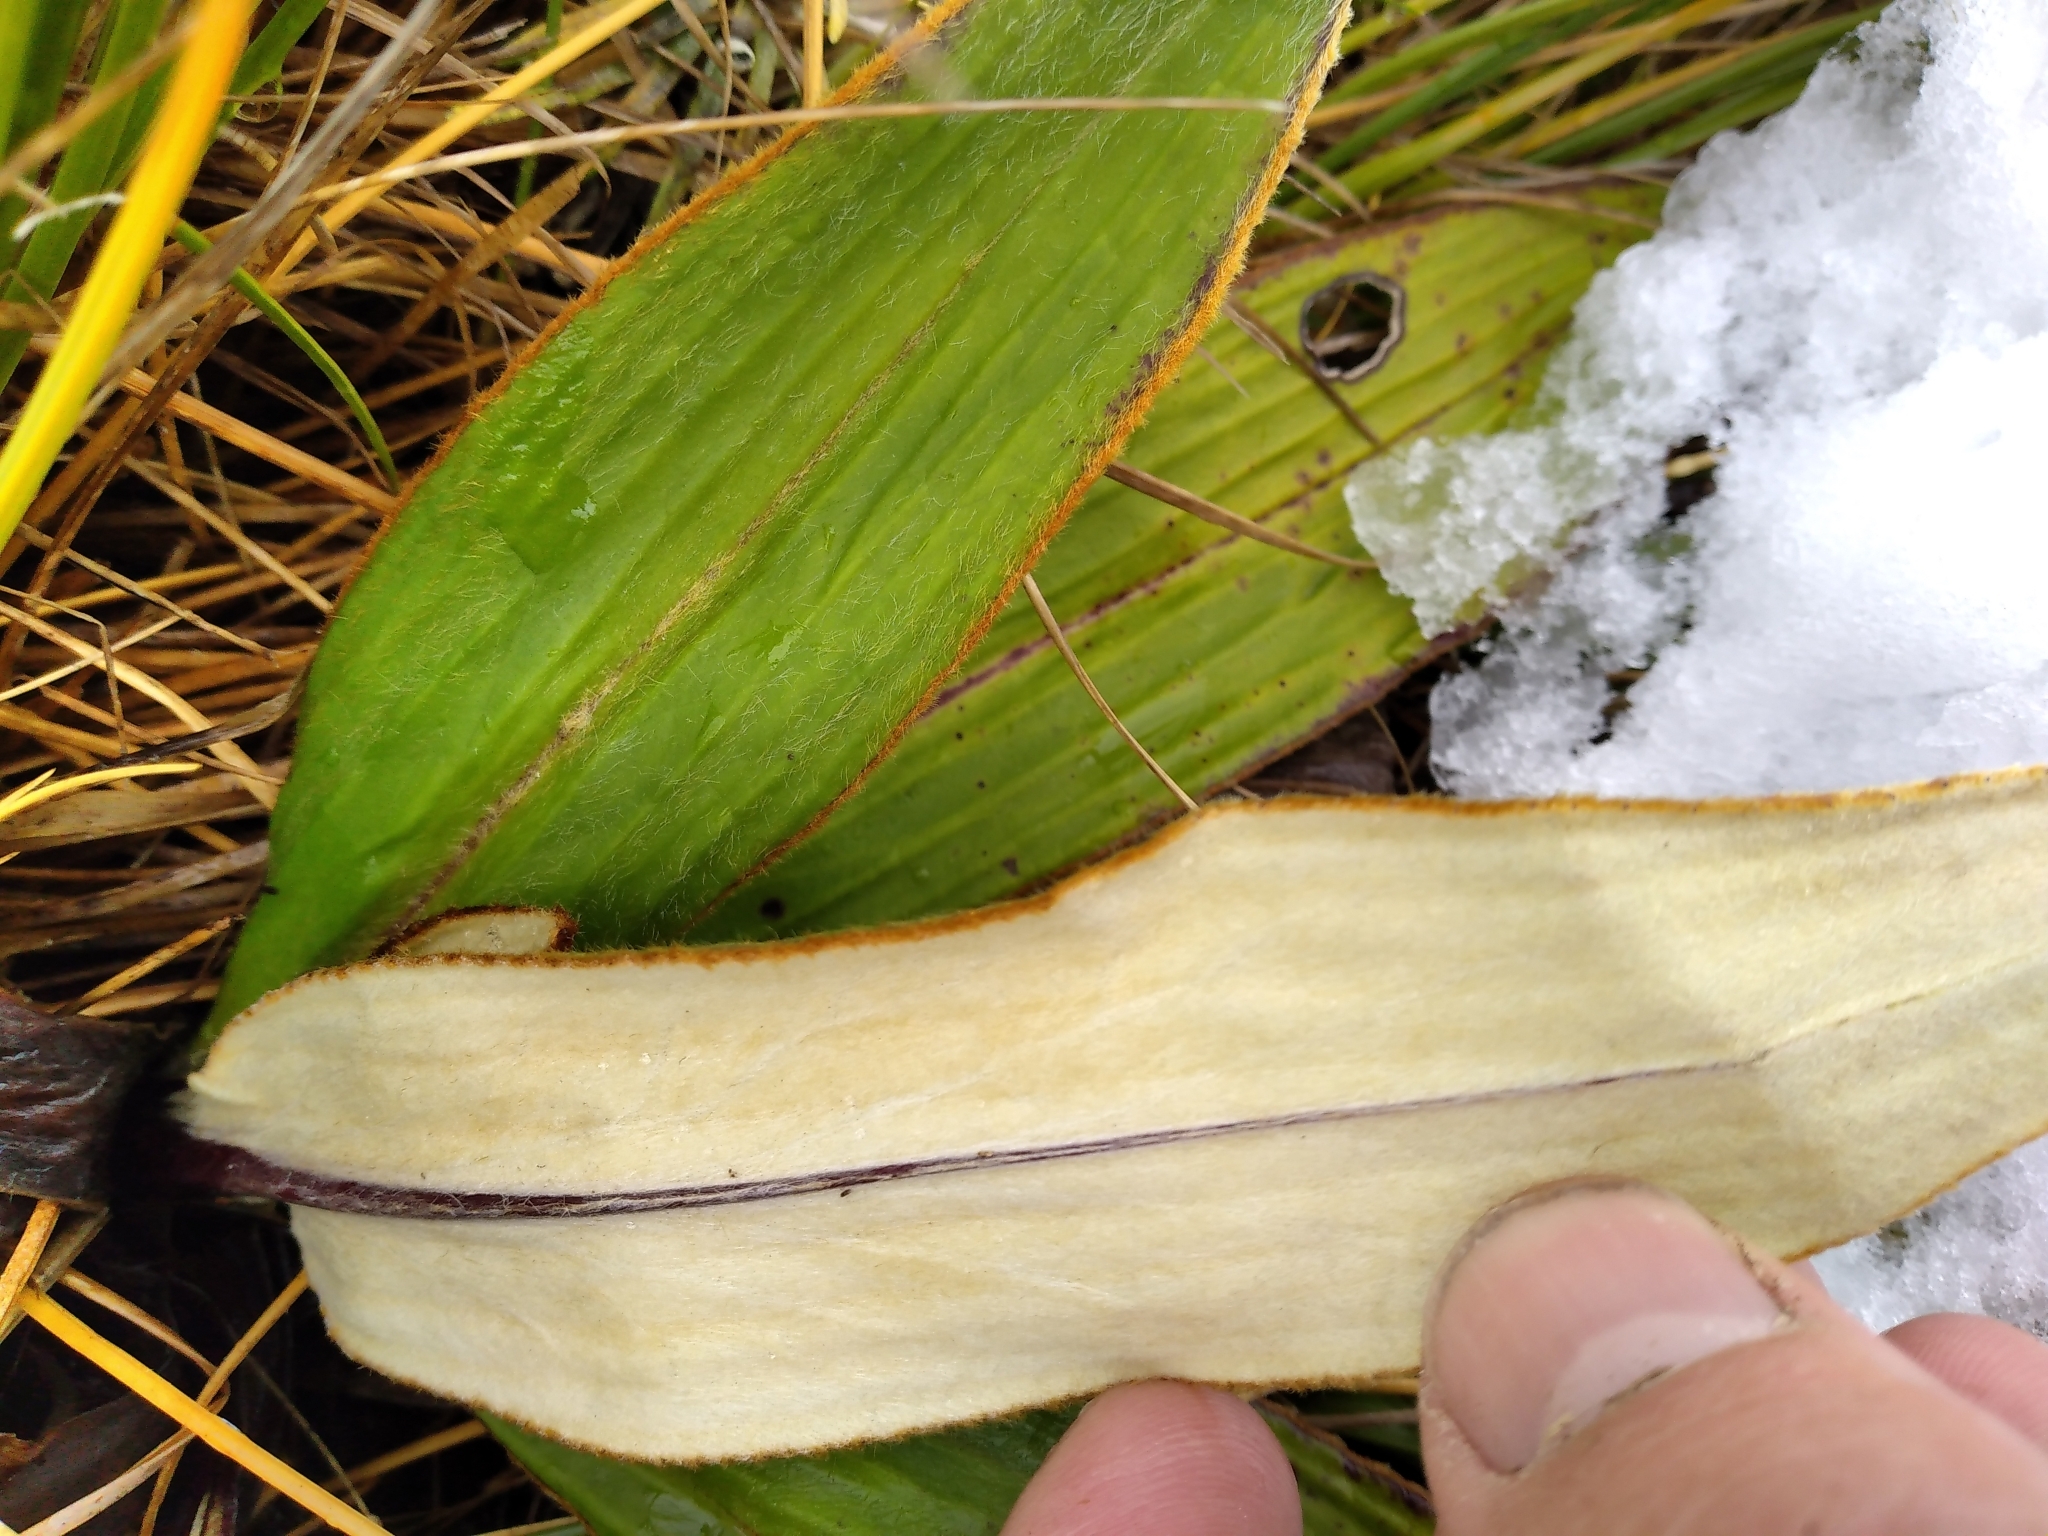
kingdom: Plantae
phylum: Tracheophyta
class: Magnoliopsida
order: Asterales
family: Asteraceae
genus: Celmisia
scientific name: Celmisia traversii
